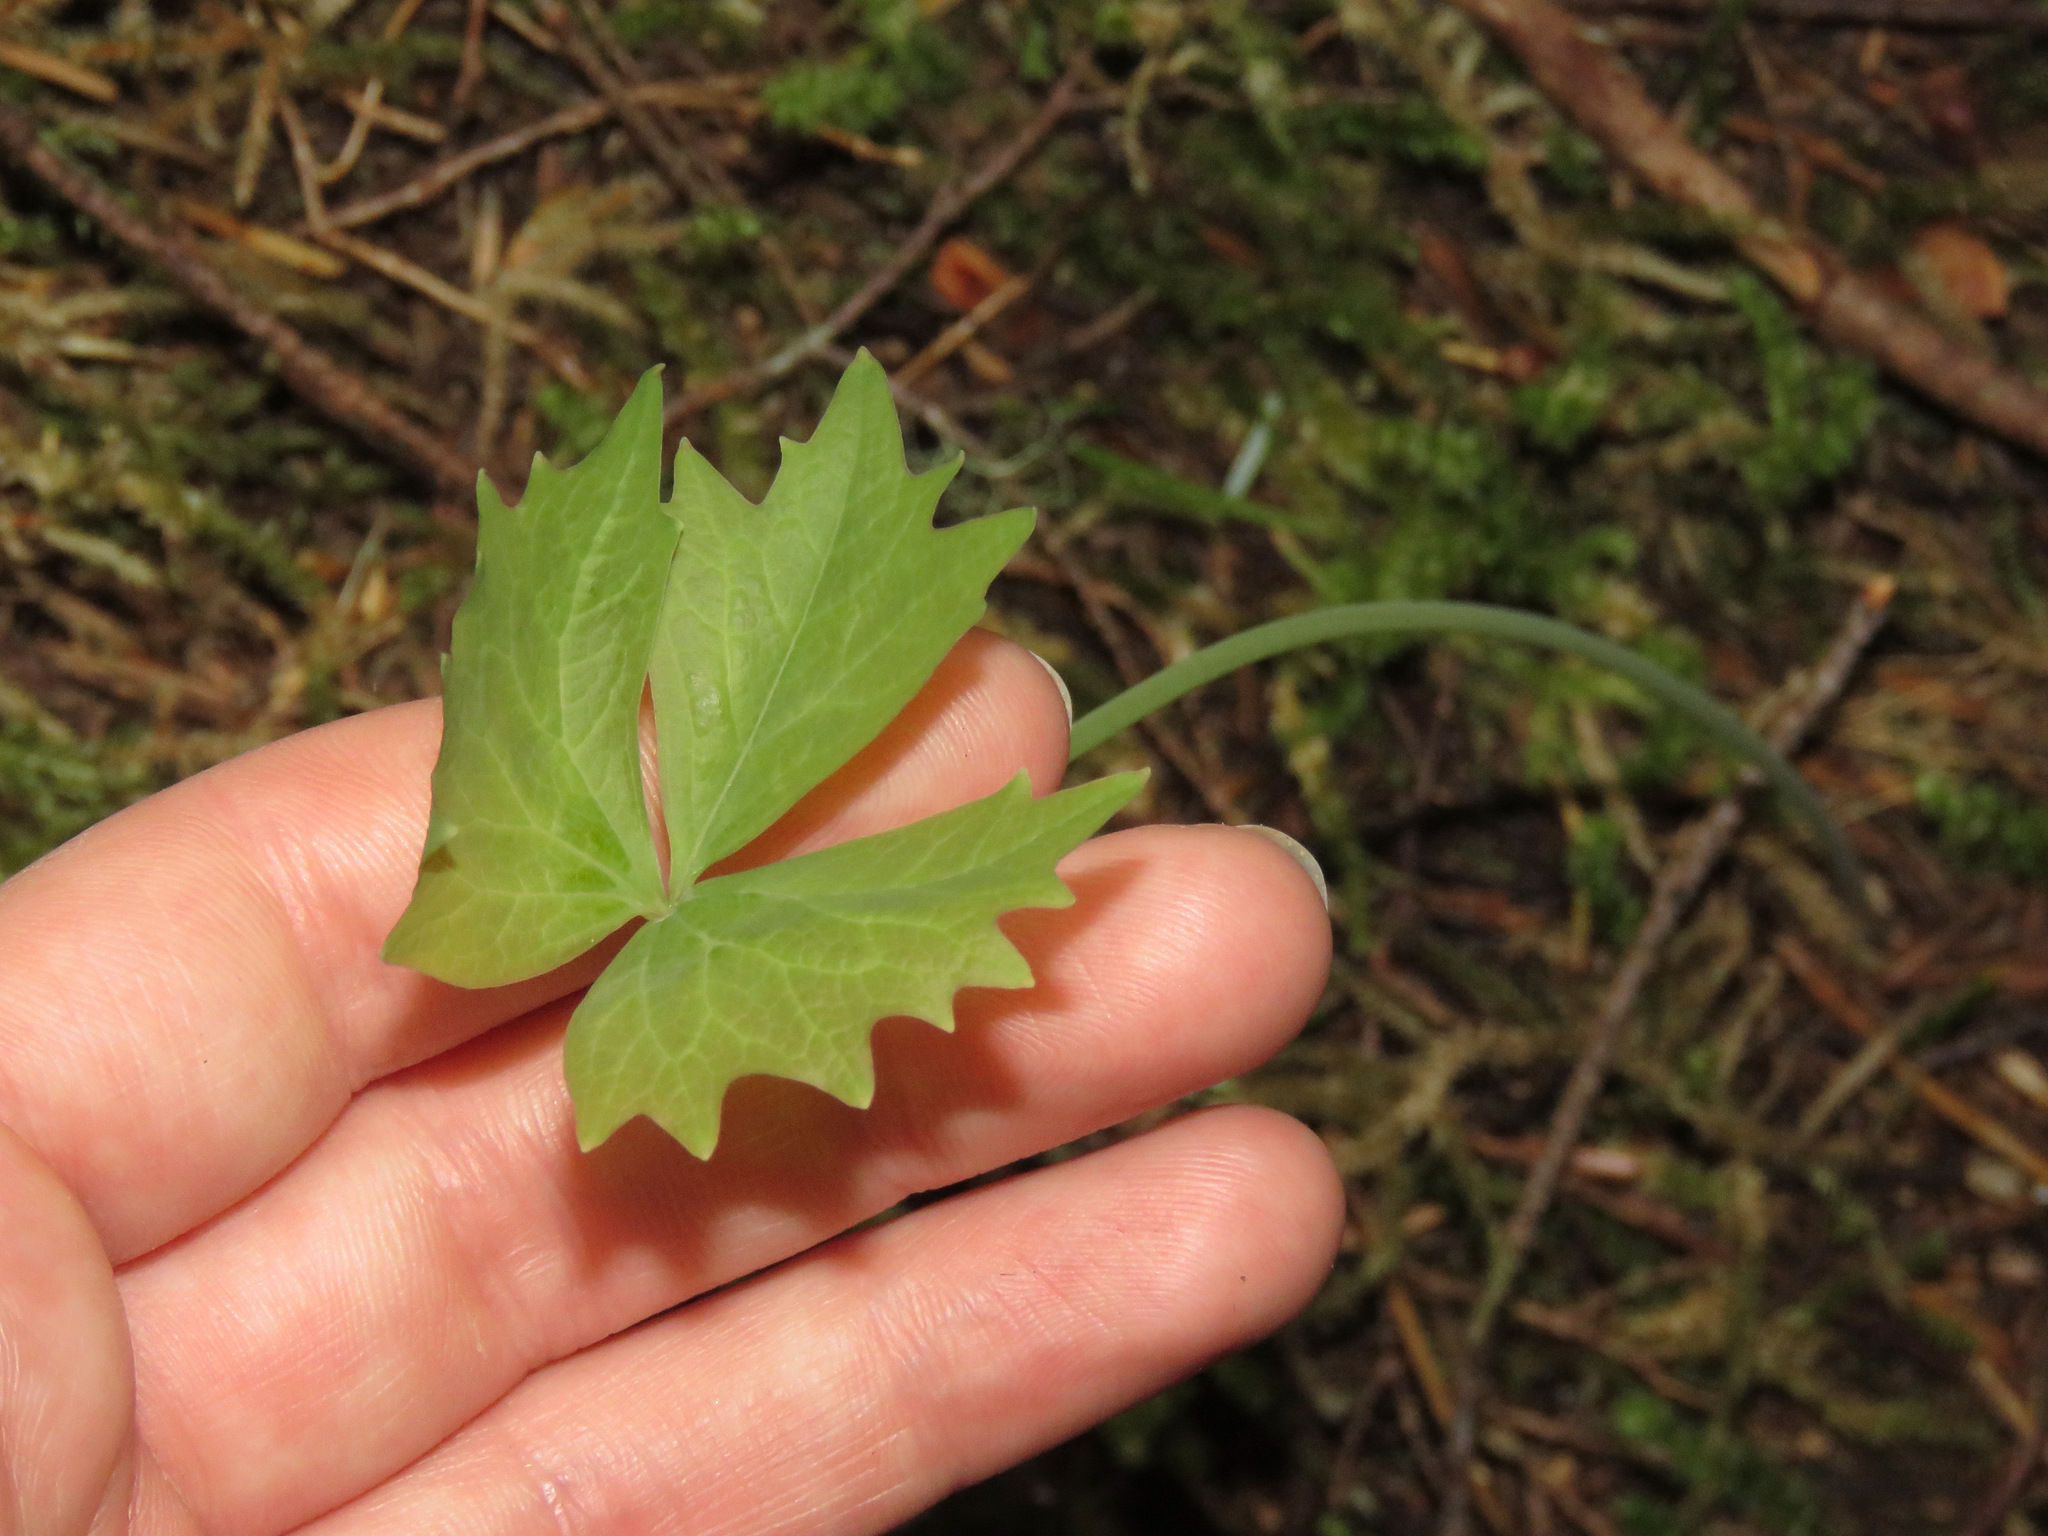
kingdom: Plantae
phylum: Tracheophyta
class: Magnoliopsida
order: Ranunculales
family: Berberidaceae
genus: Achlys
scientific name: Achlys triphylla
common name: Vanilla-leaf
